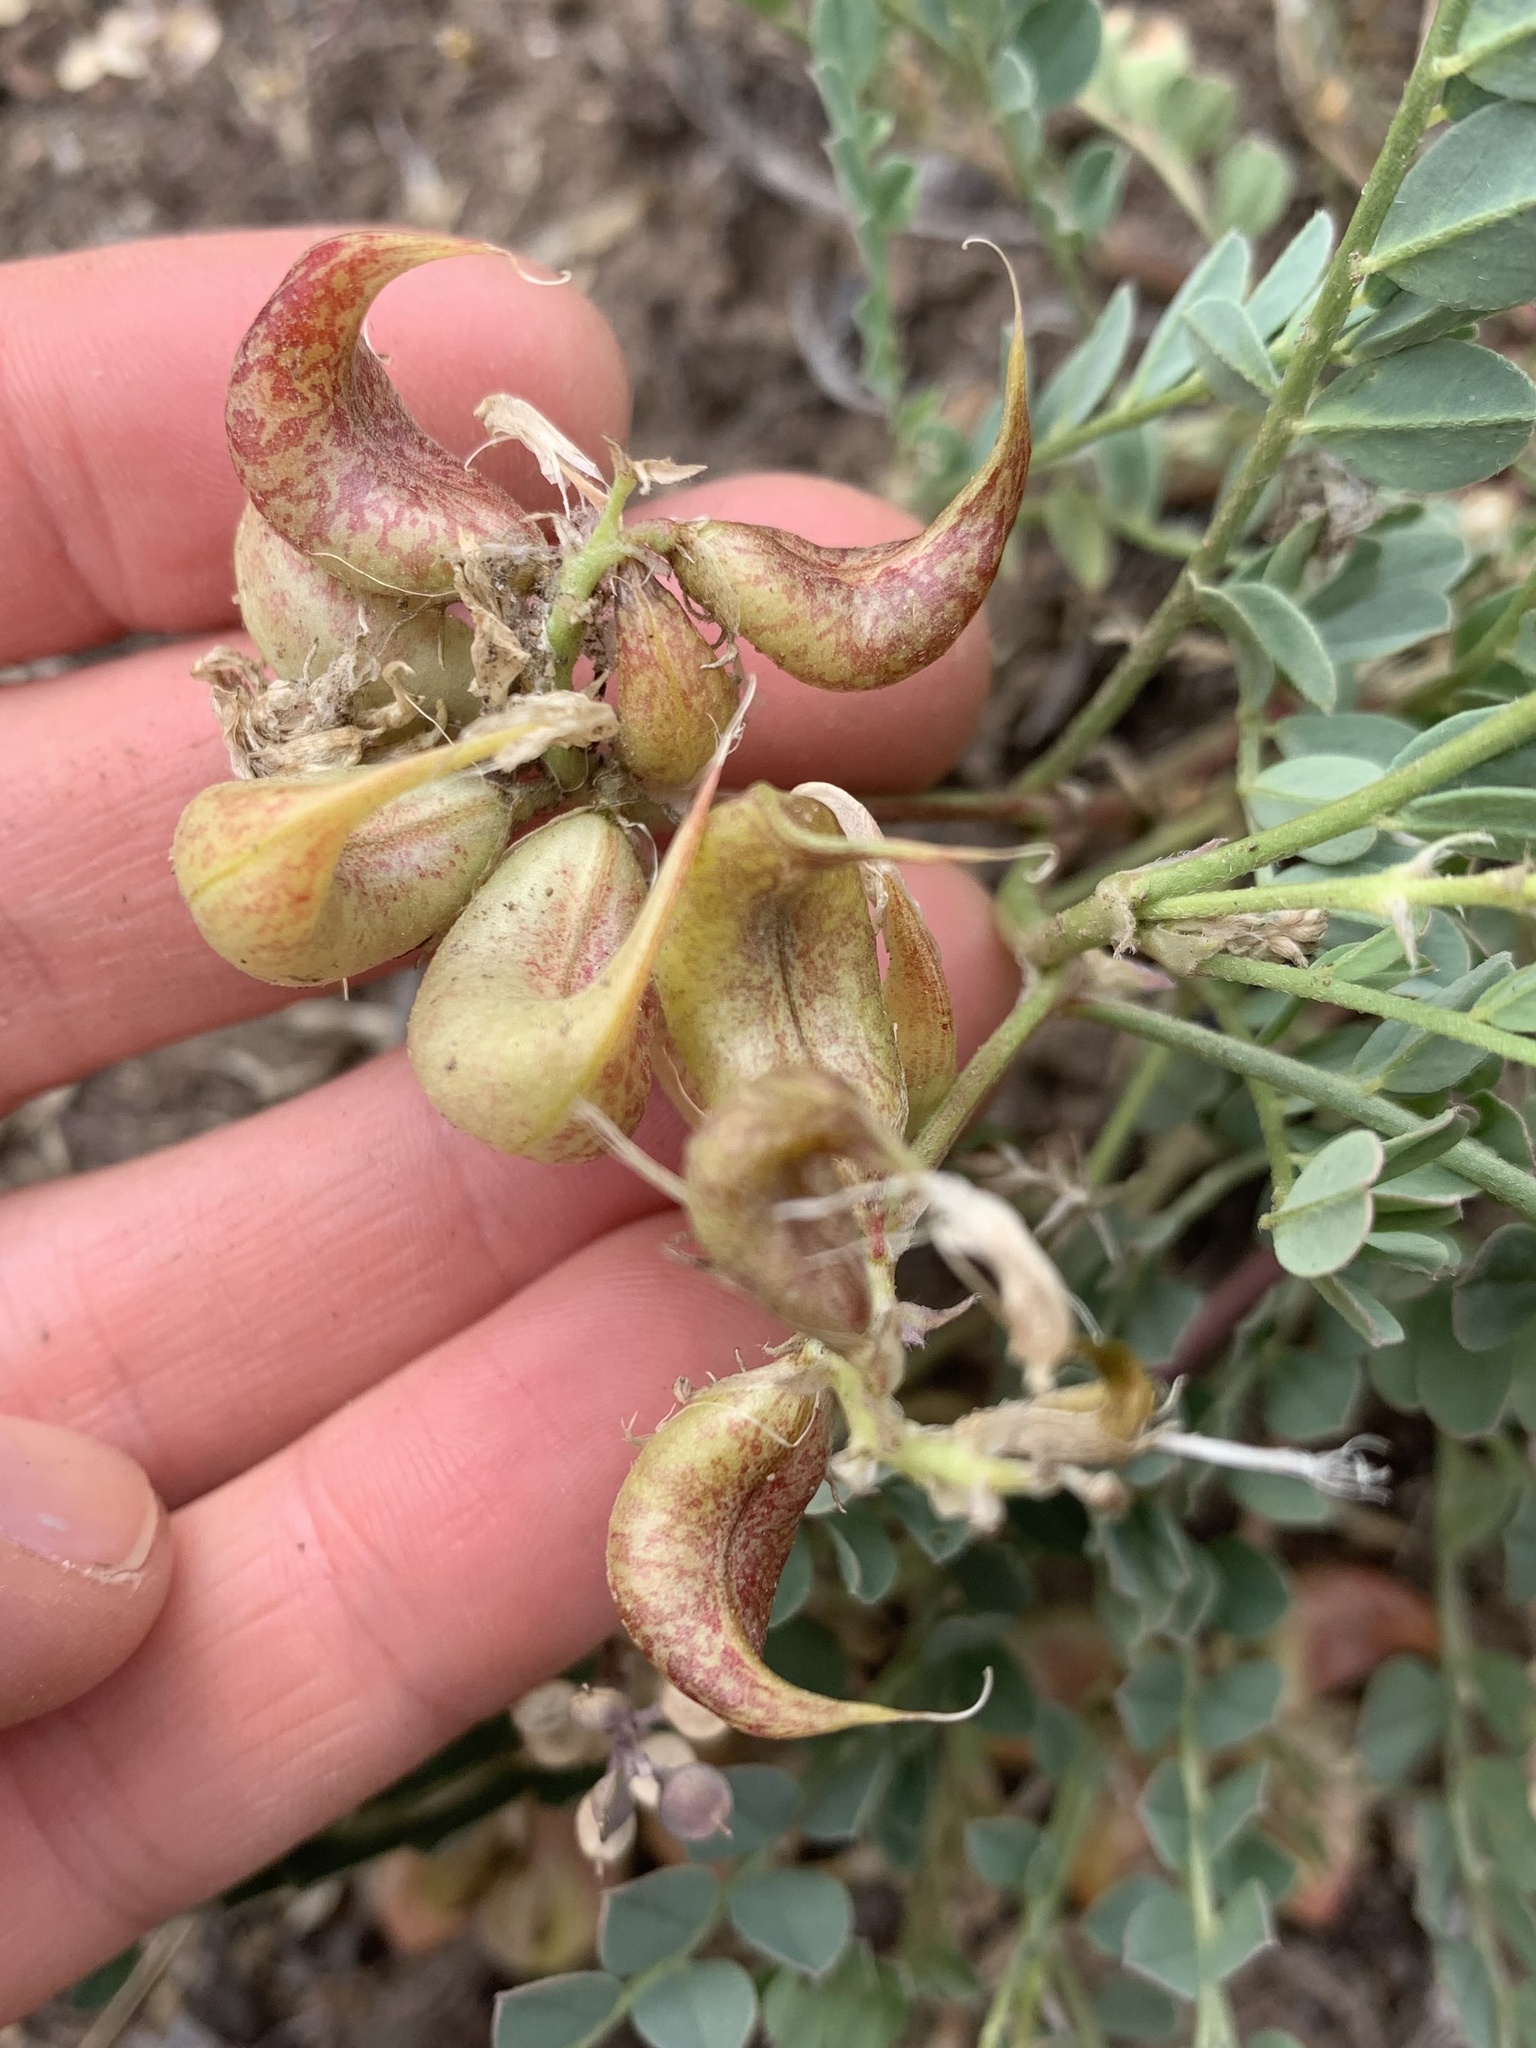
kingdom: Plantae
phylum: Tracheophyta
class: Magnoliopsida
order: Fabales
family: Fabaceae
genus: Astragalus
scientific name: Astragalus lentiginosus
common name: Freckled milkvetch
